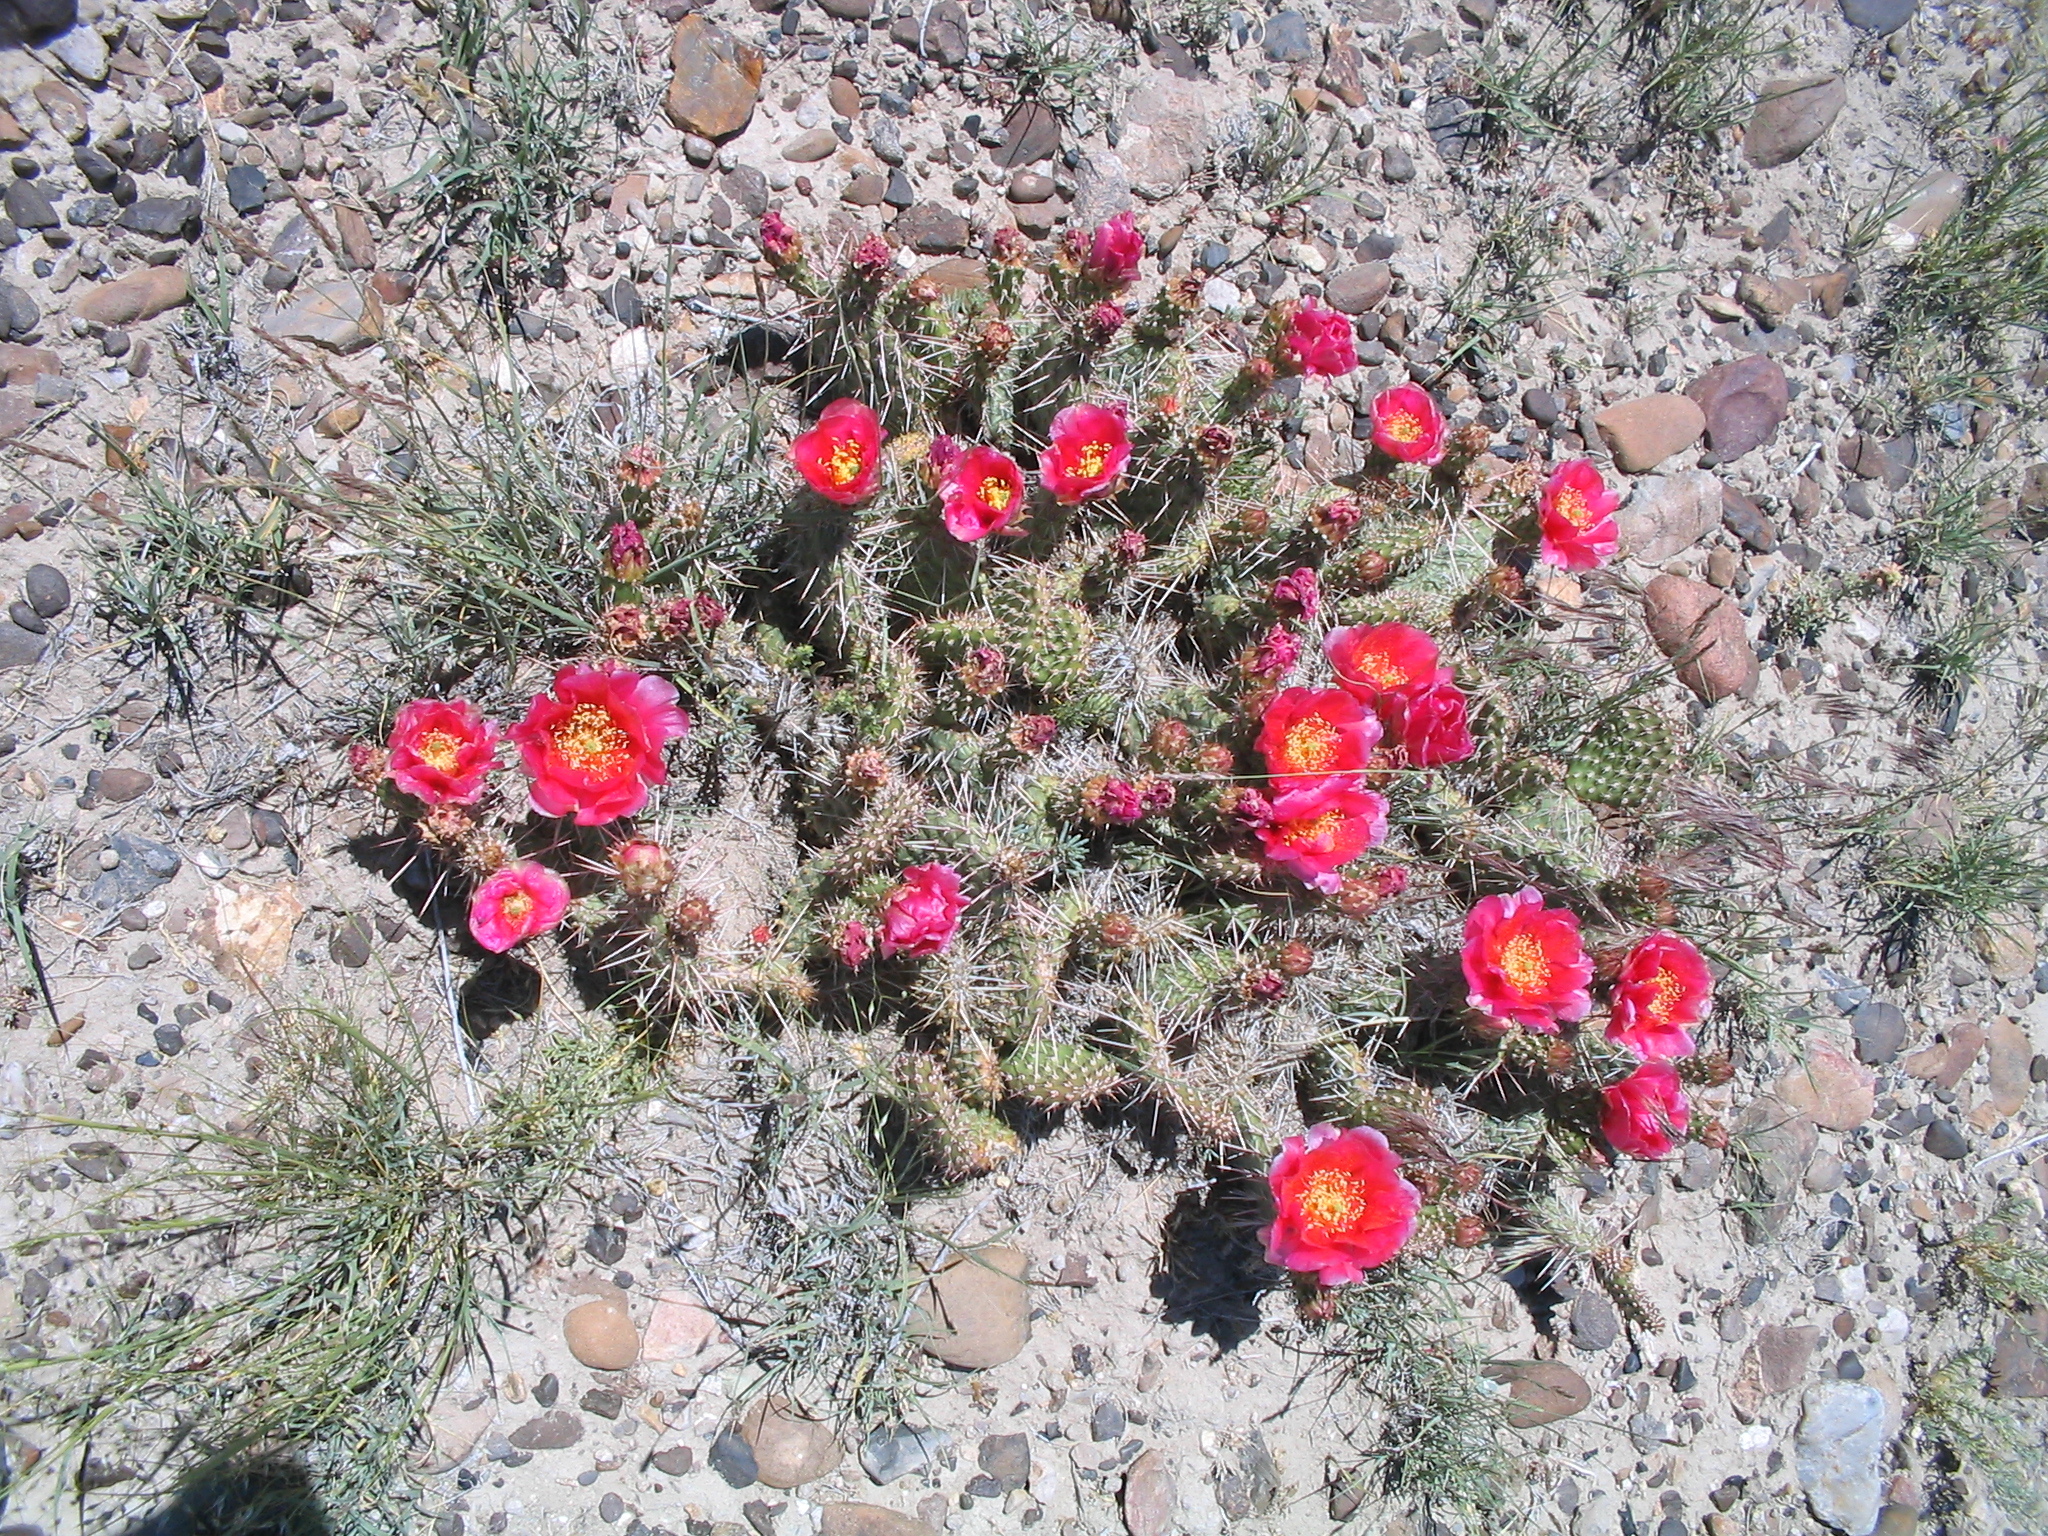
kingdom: Plantae
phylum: Tracheophyta
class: Magnoliopsida
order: Caryophyllales
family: Cactaceae
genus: Opuntia
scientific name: Opuntia polyacantha
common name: Plains prickly-pear
